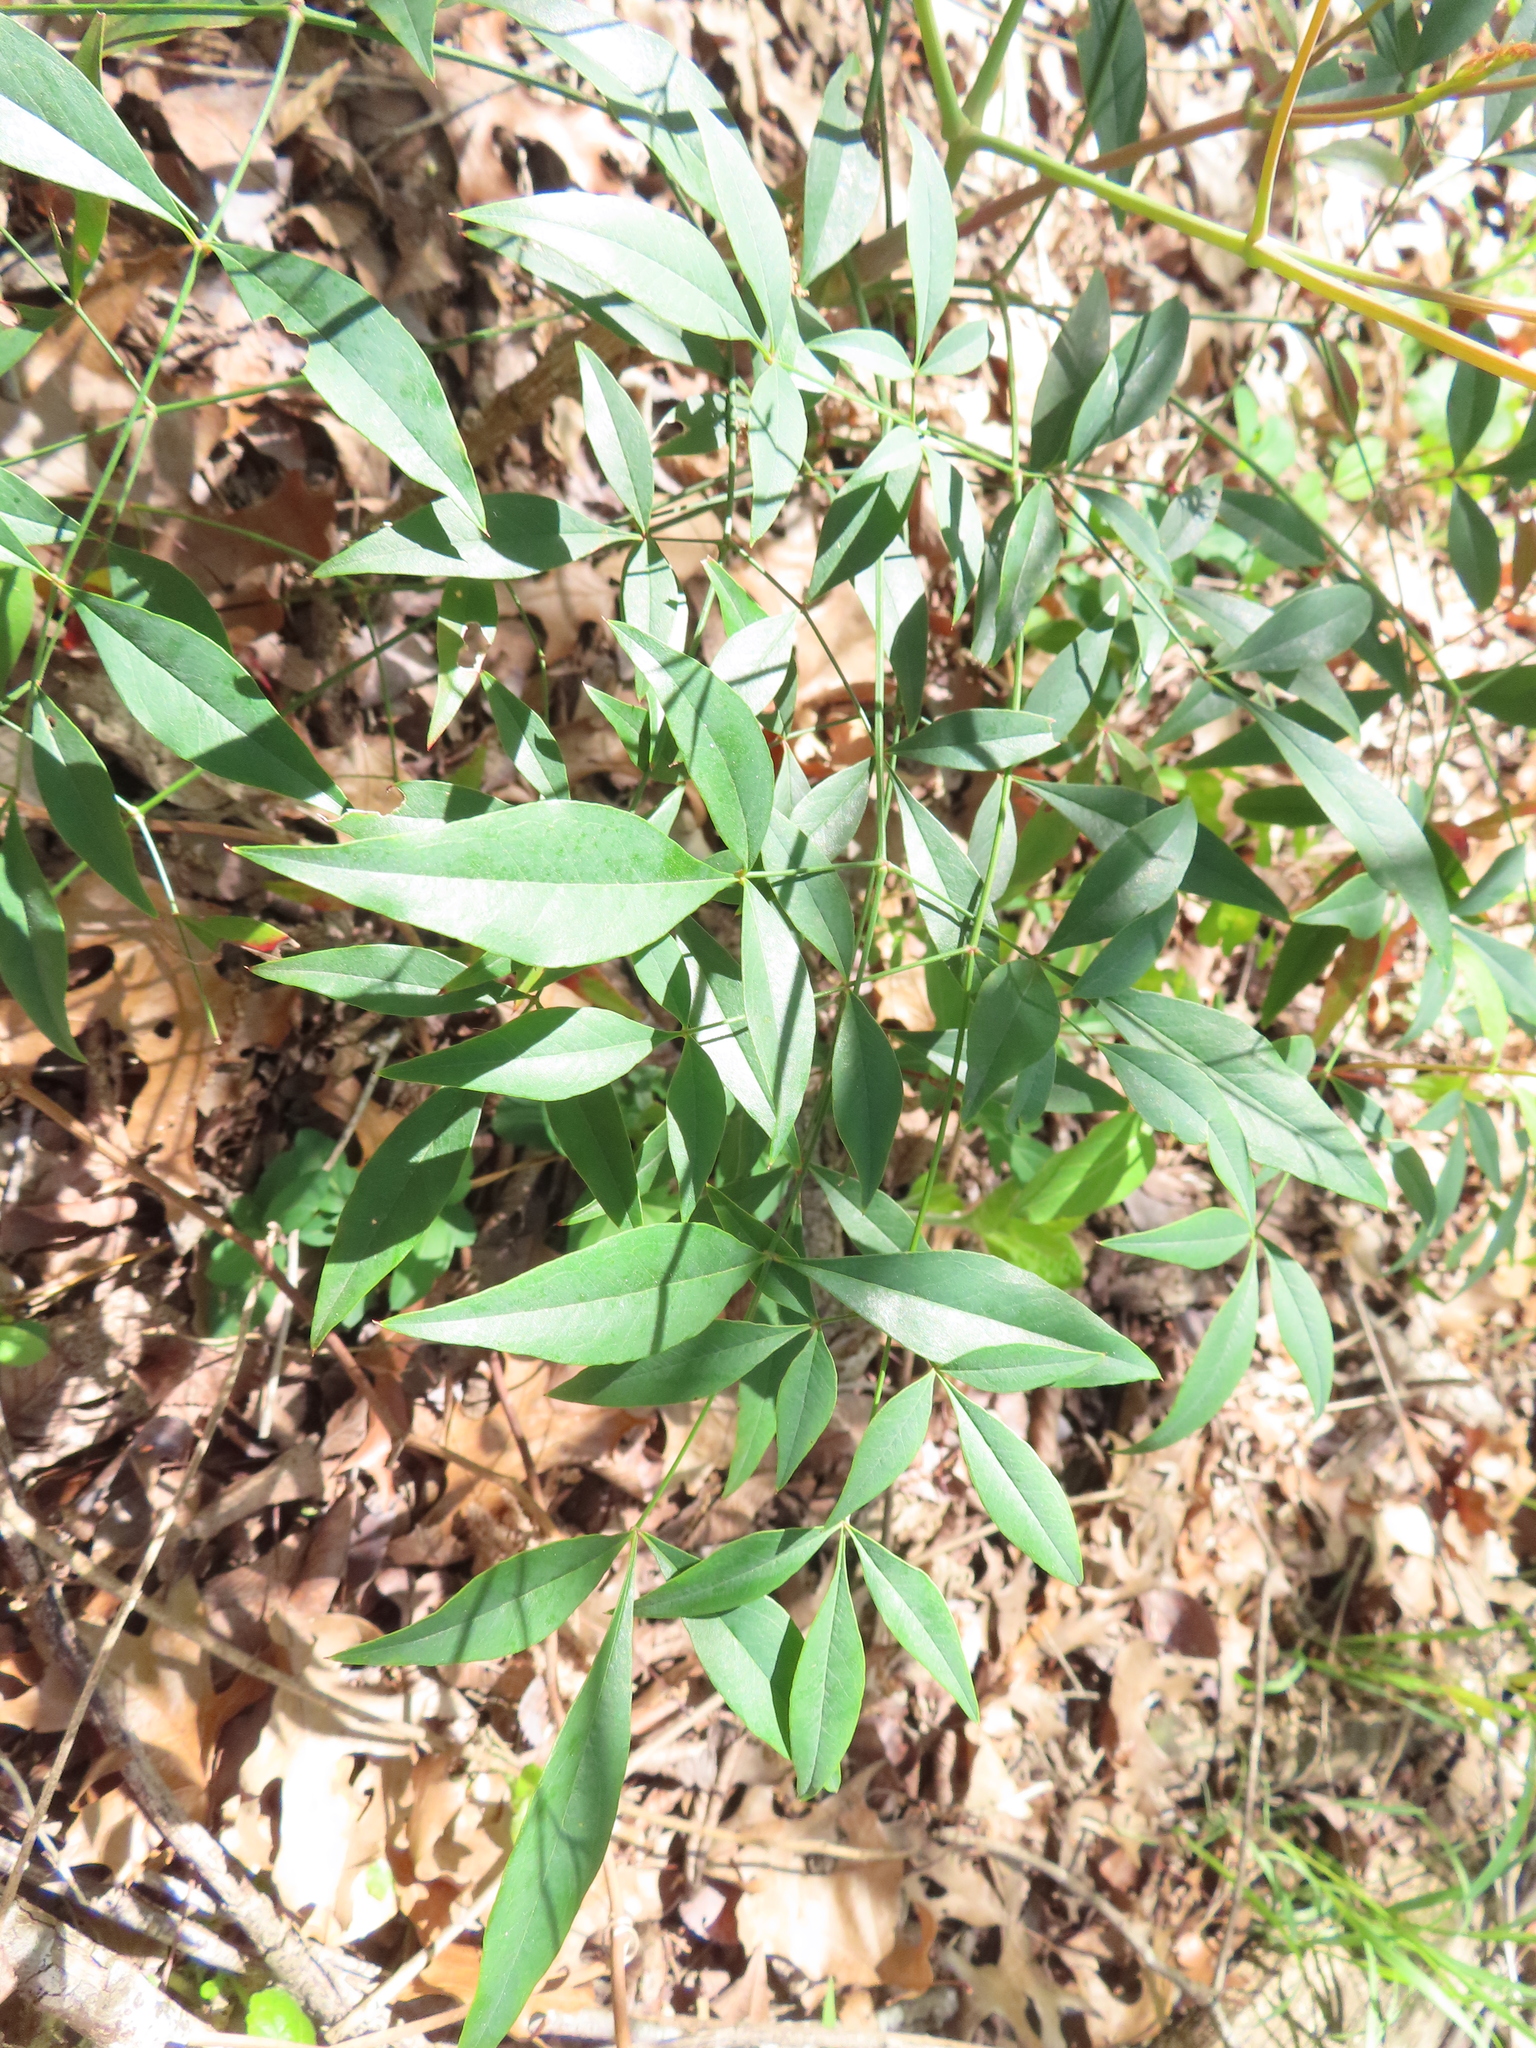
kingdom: Plantae
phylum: Tracheophyta
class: Magnoliopsida
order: Ranunculales
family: Berberidaceae
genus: Nandina
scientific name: Nandina domestica
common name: Sacred bamboo
